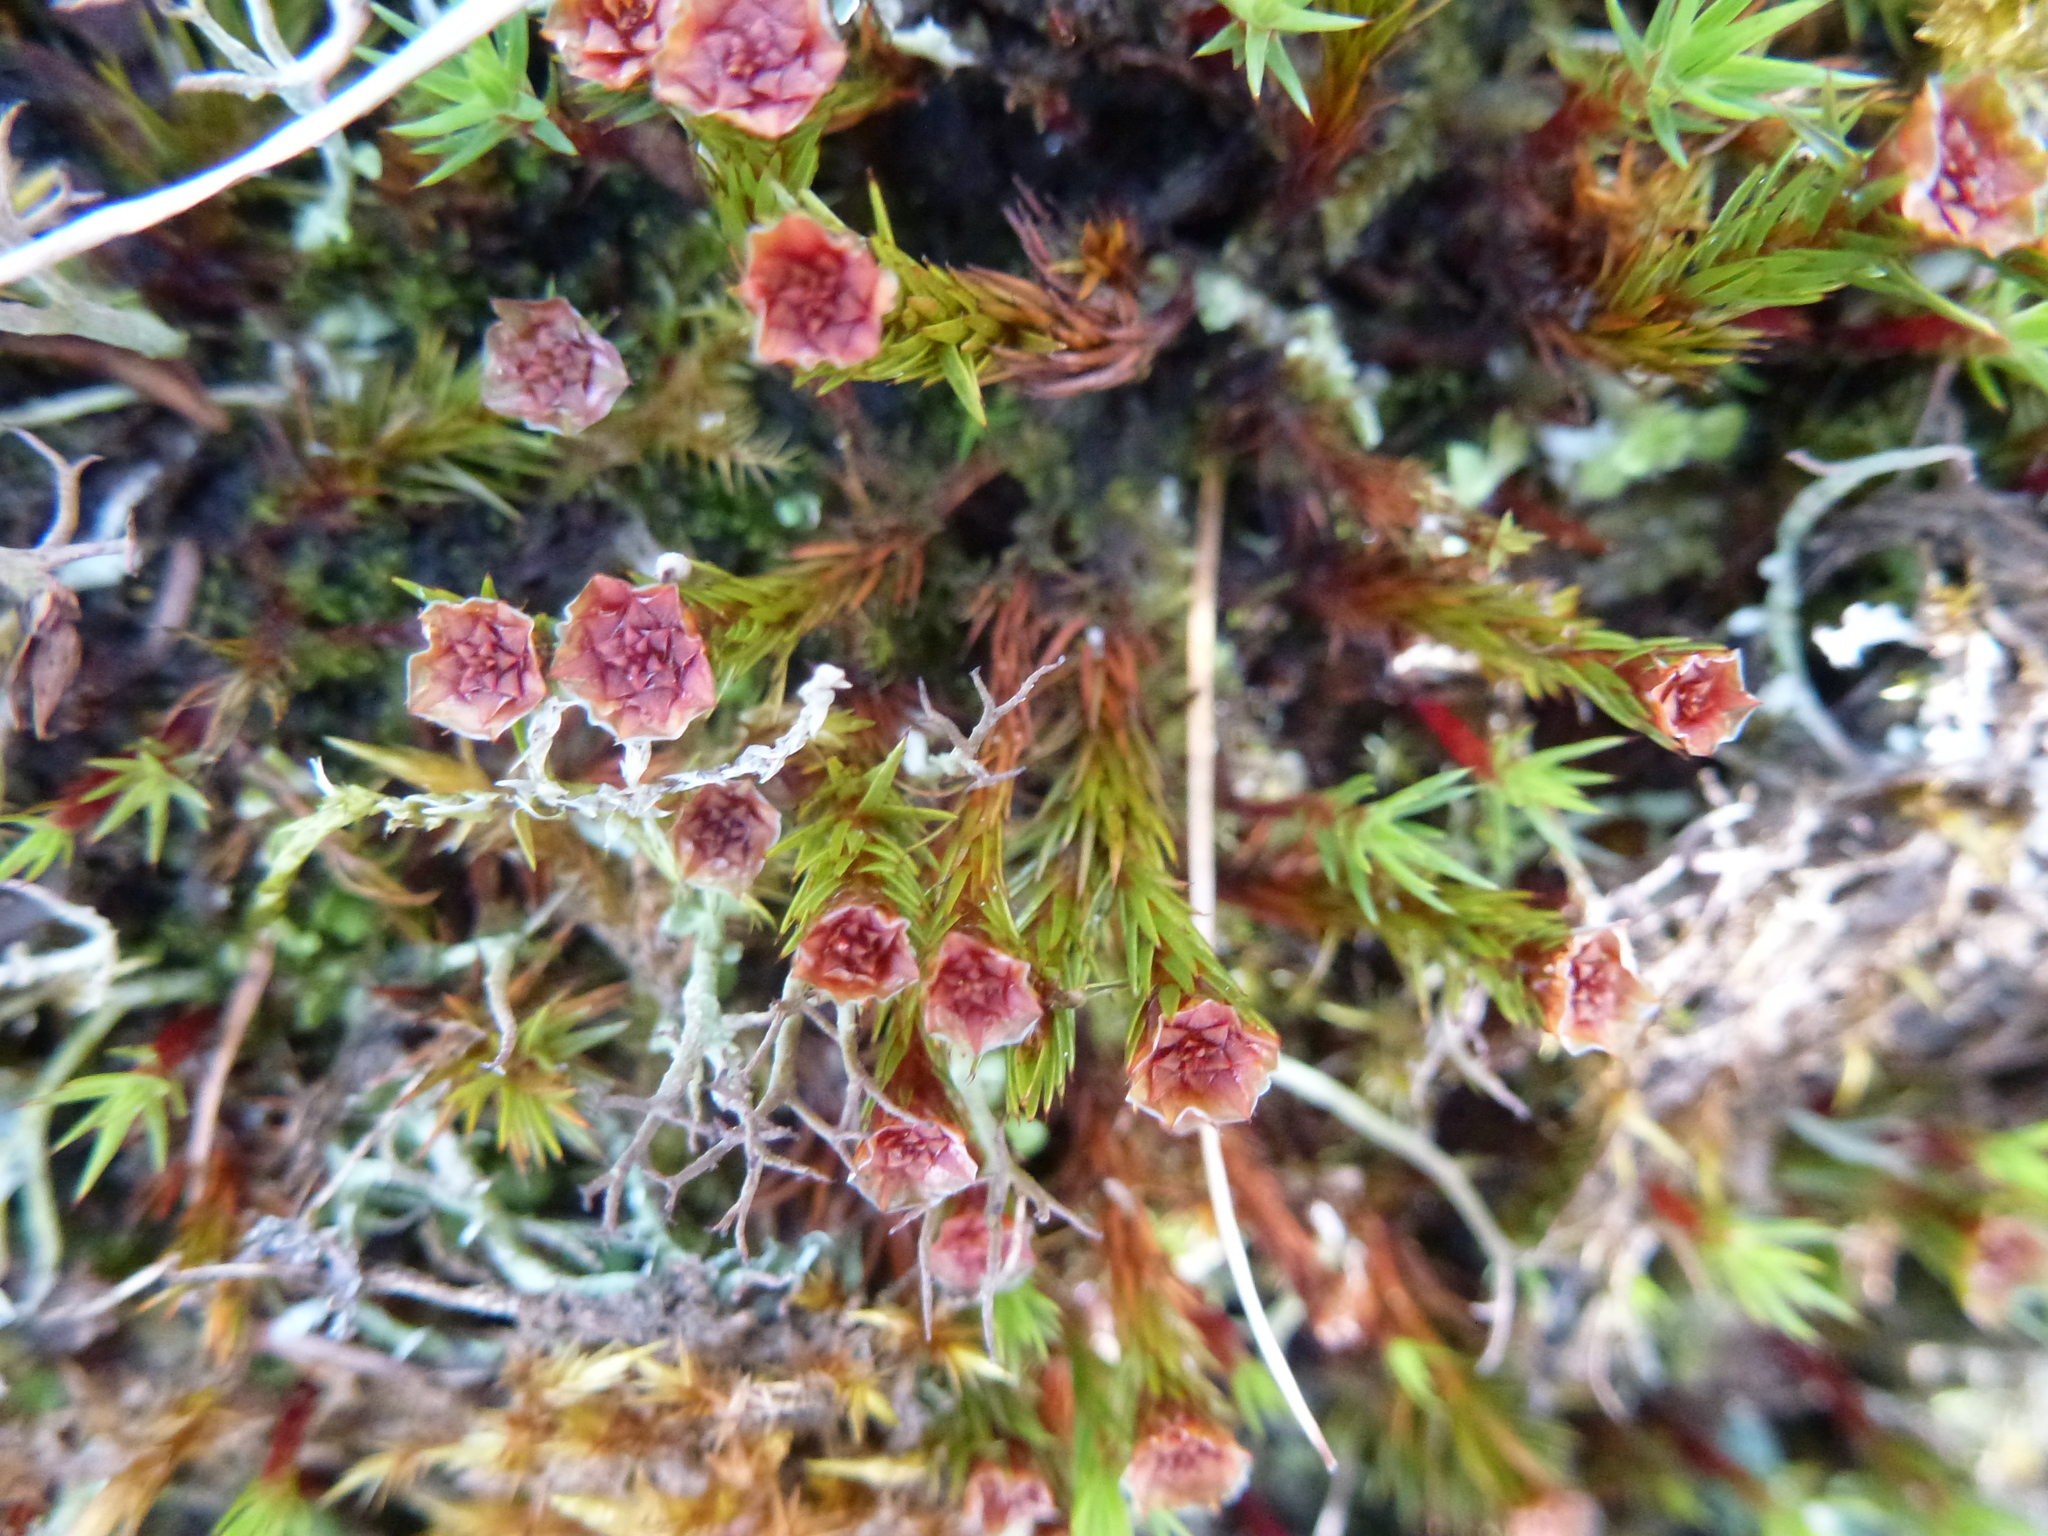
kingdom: Plantae
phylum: Bryophyta
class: Polytrichopsida
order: Polytrichales
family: Polytrichaceae
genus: Polytrichum
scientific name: Polytrichum juniperinum
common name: Juniper haircap moss
